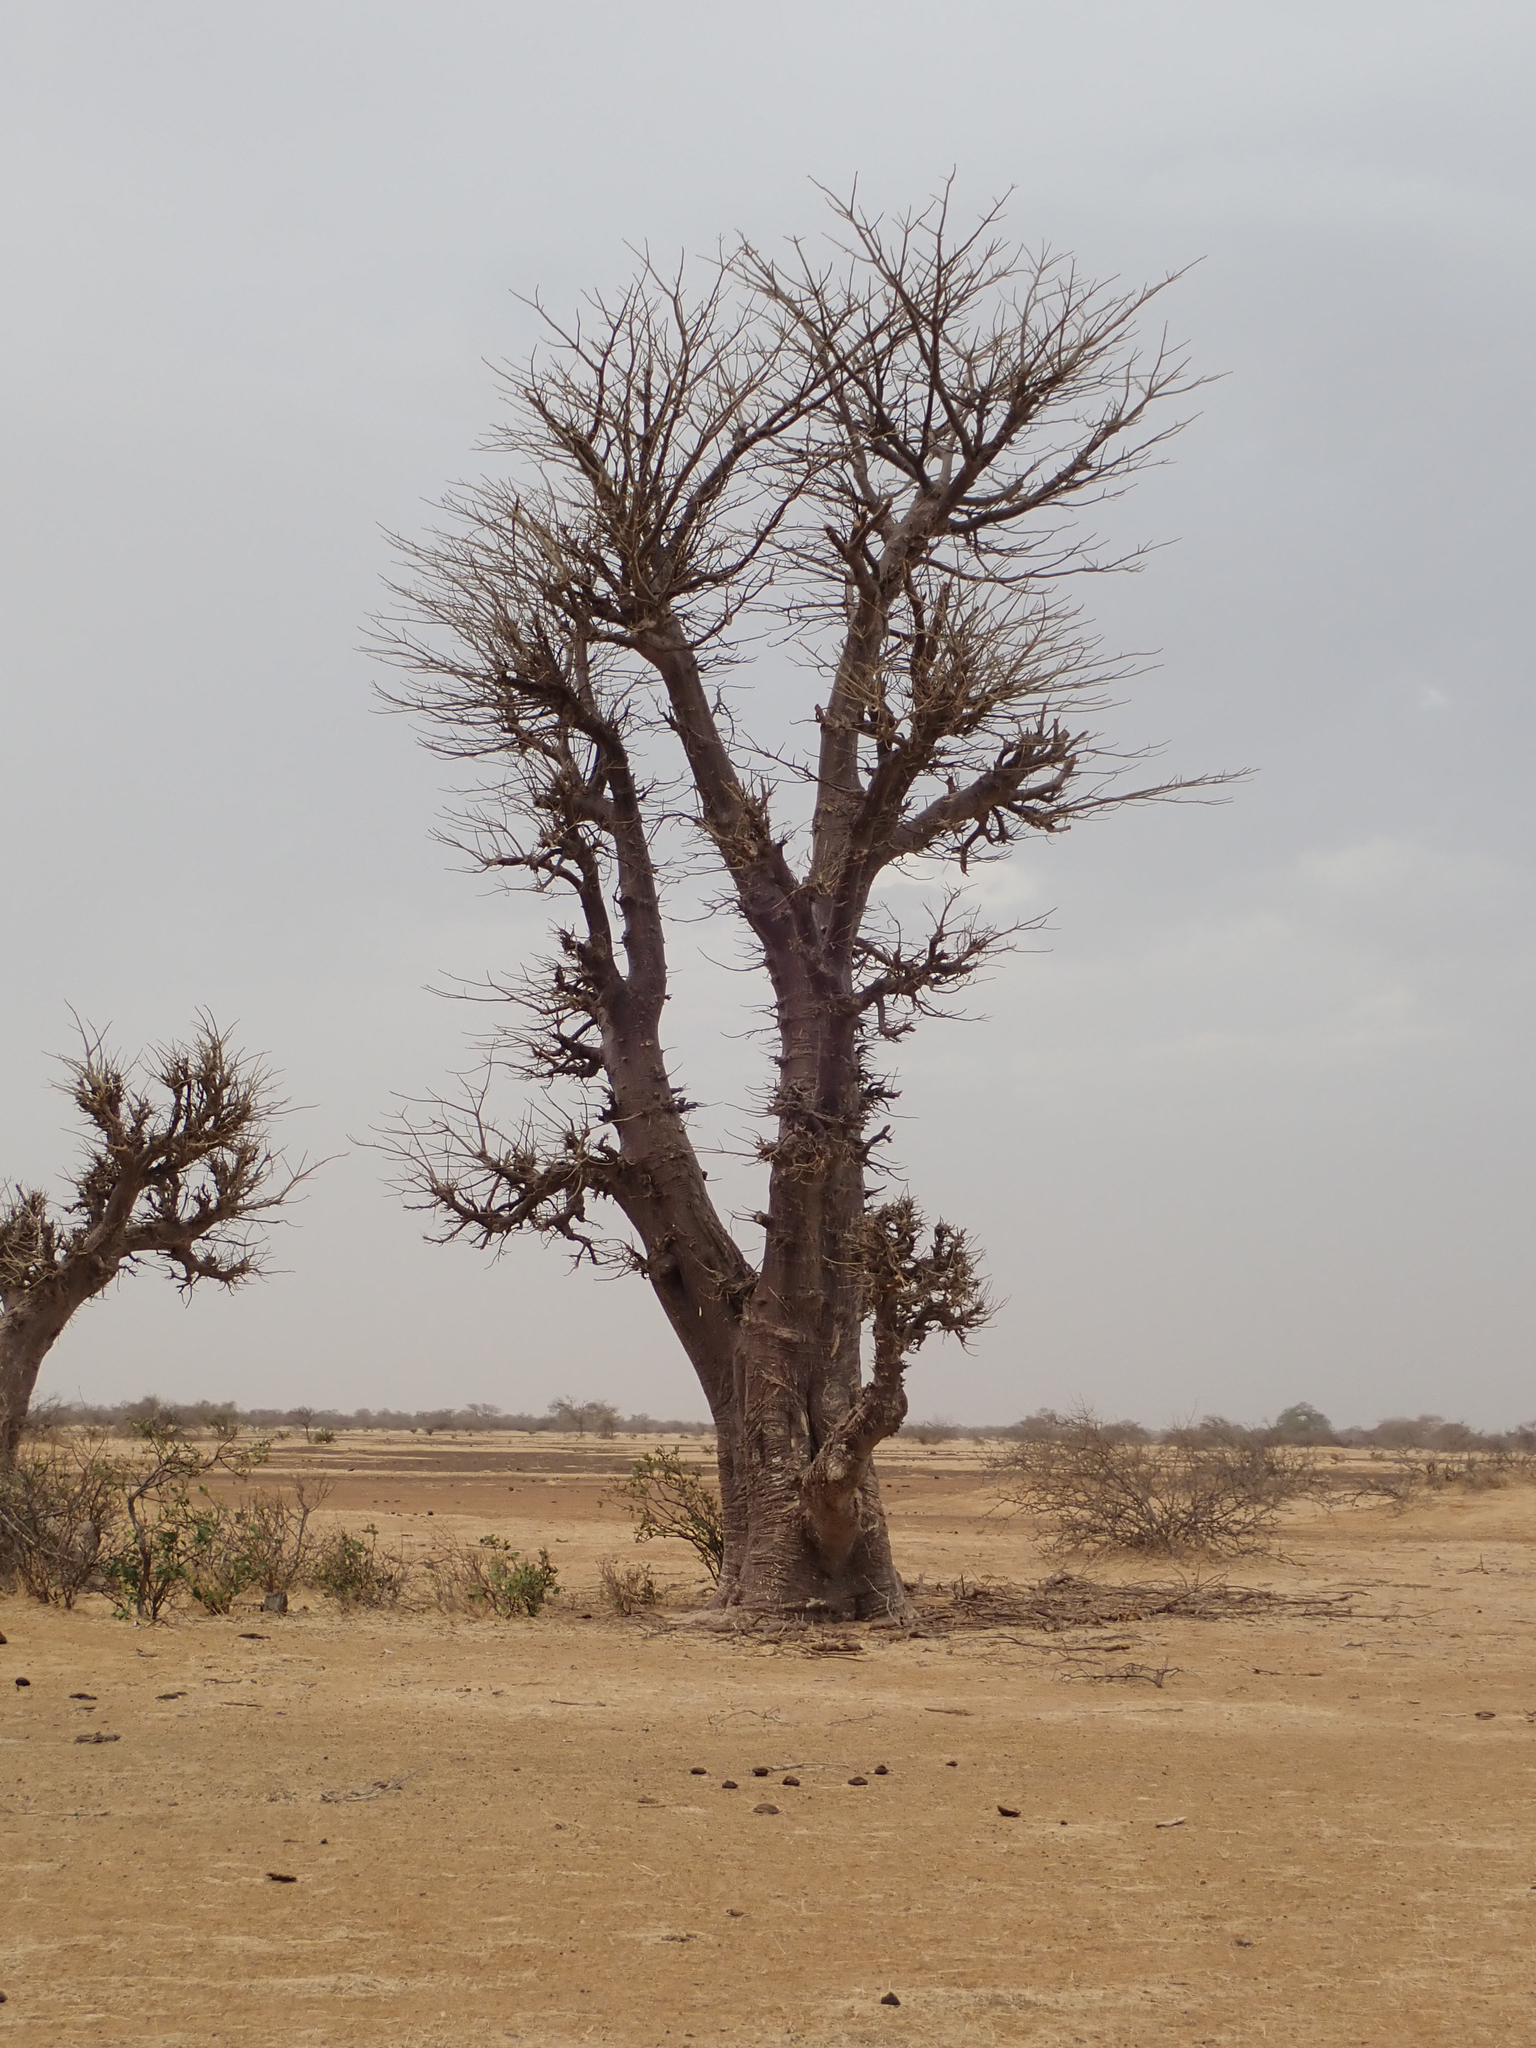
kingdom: Plantae
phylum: Tracheophyta
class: Magnoliopsida
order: Malvales
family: Malvaceae
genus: Adansonia
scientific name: Adansonia digitata
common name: Dead-rat-tree
